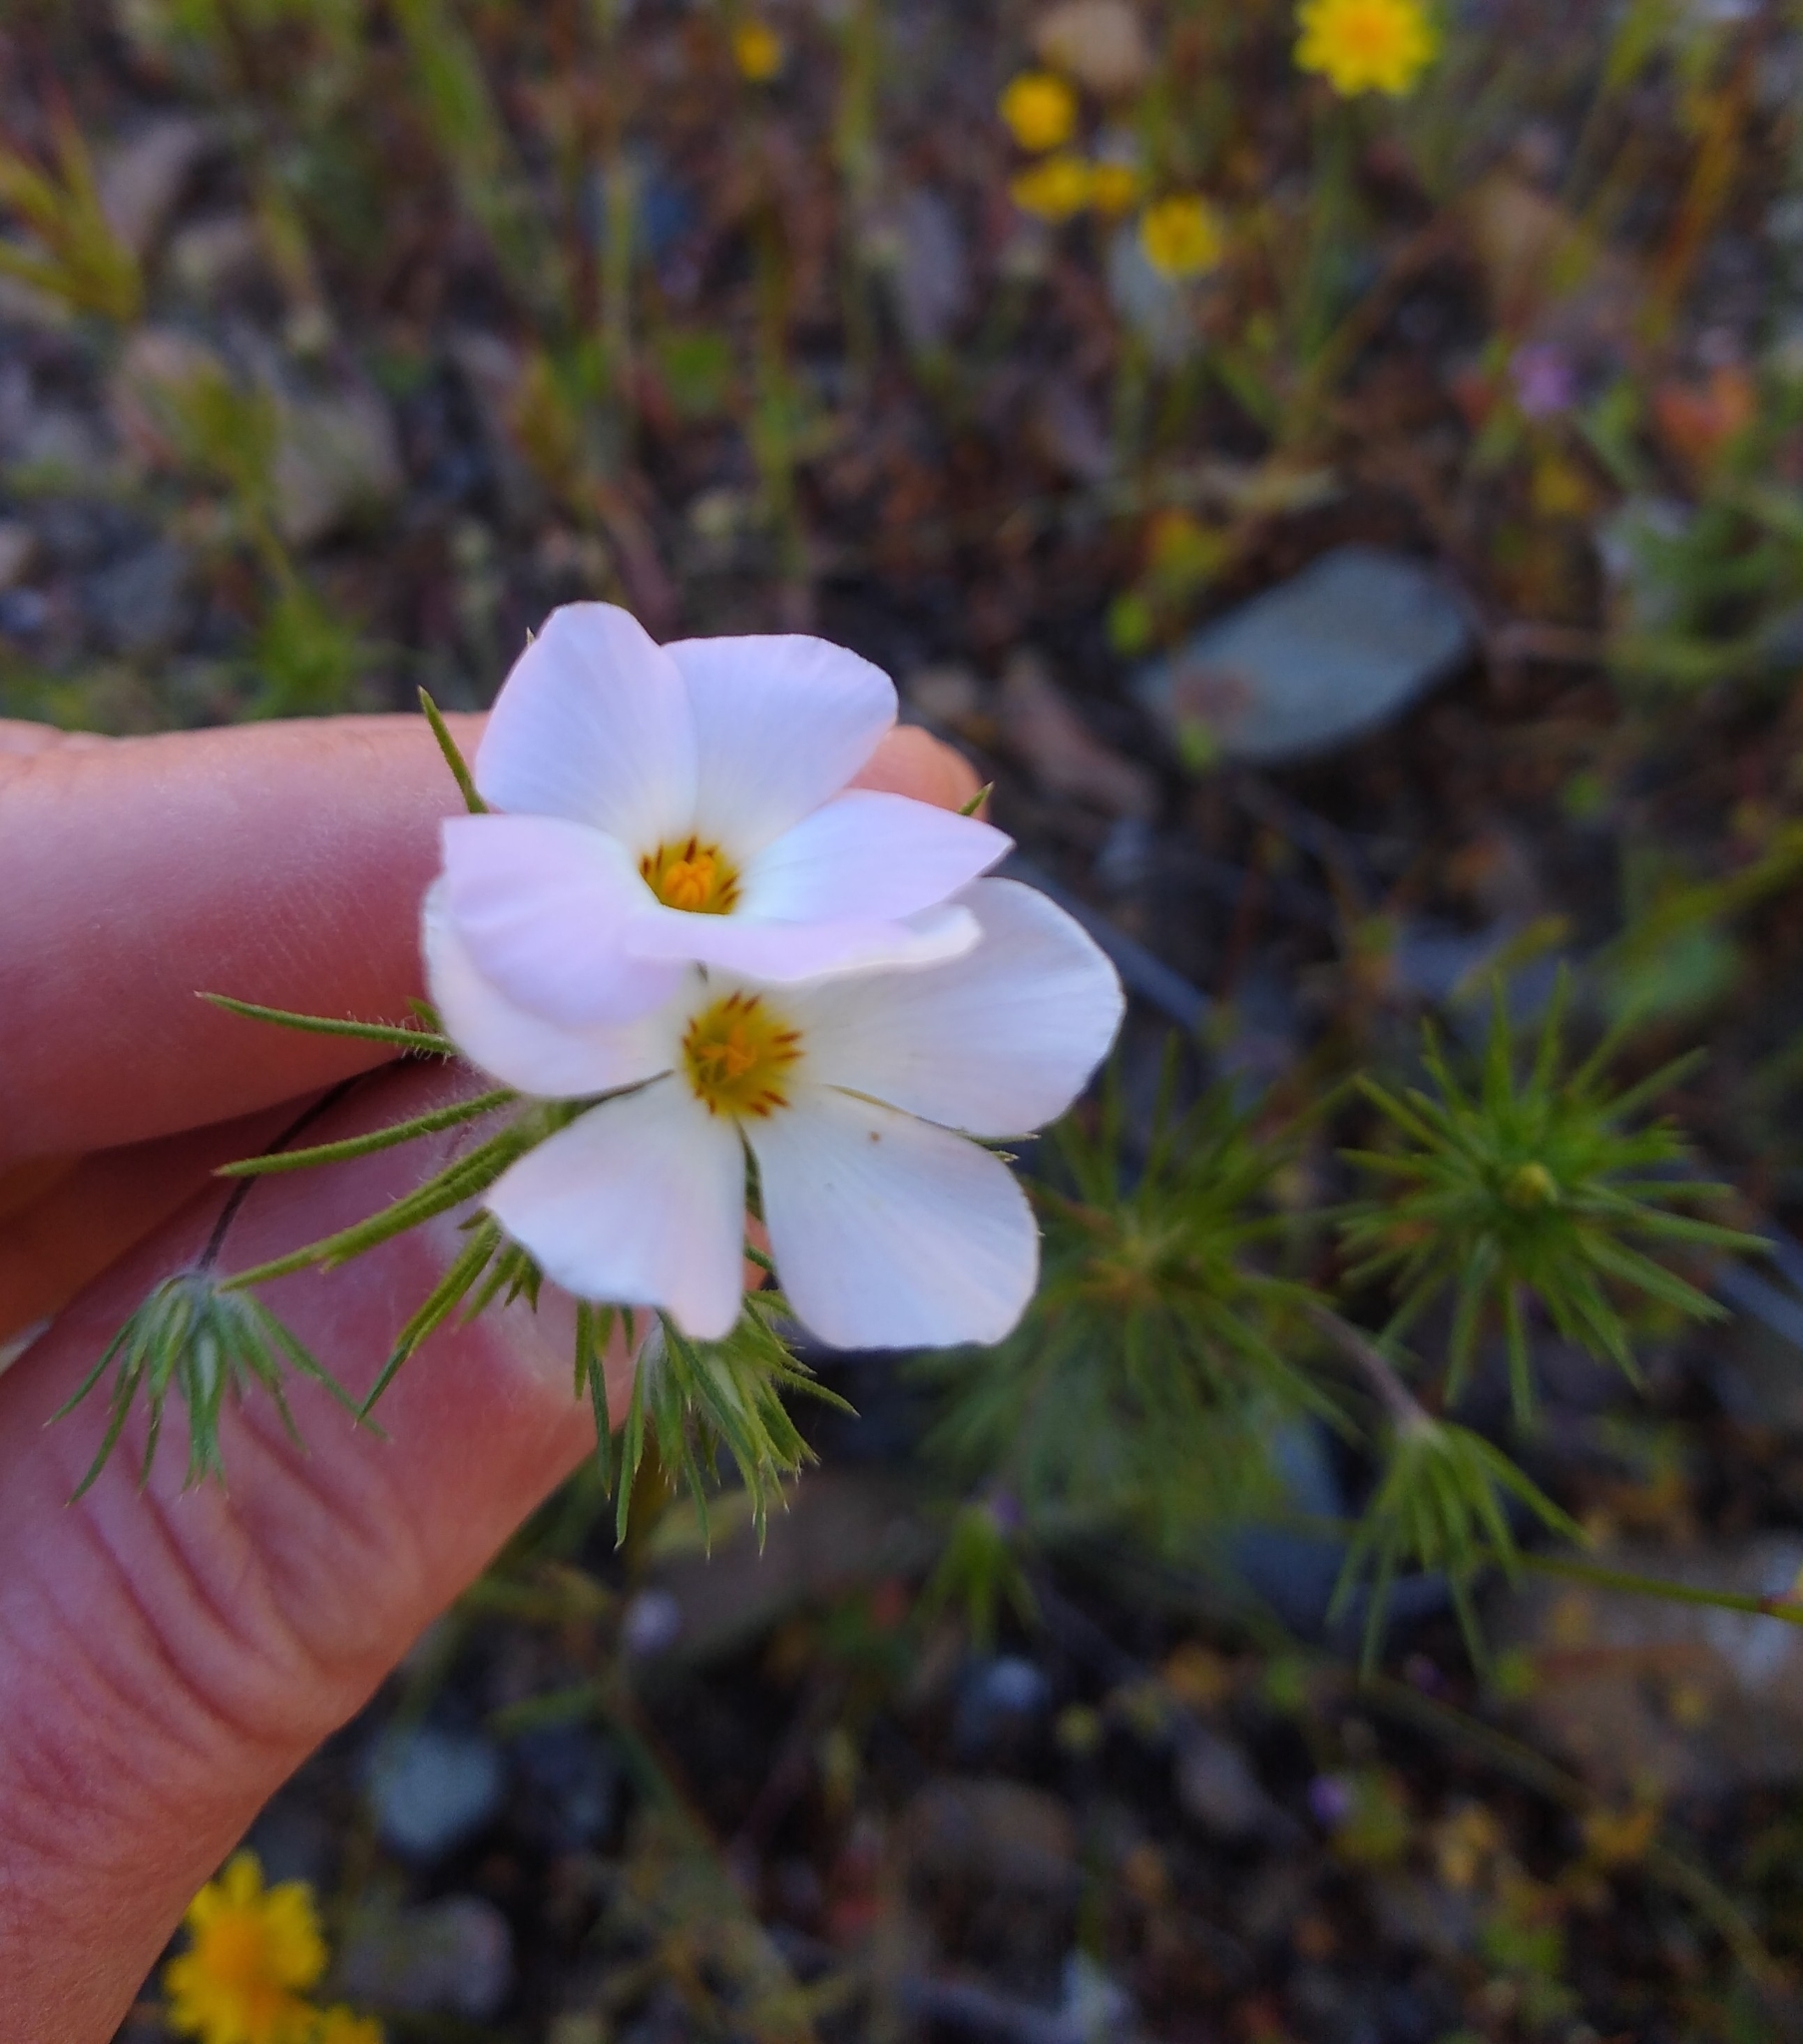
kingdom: Plantae
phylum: Tracheophyta
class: Magnoliopsida
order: Ericales
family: Polemoniaceae
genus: Leptosiphon
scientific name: Leptosiphon grandiflorus
